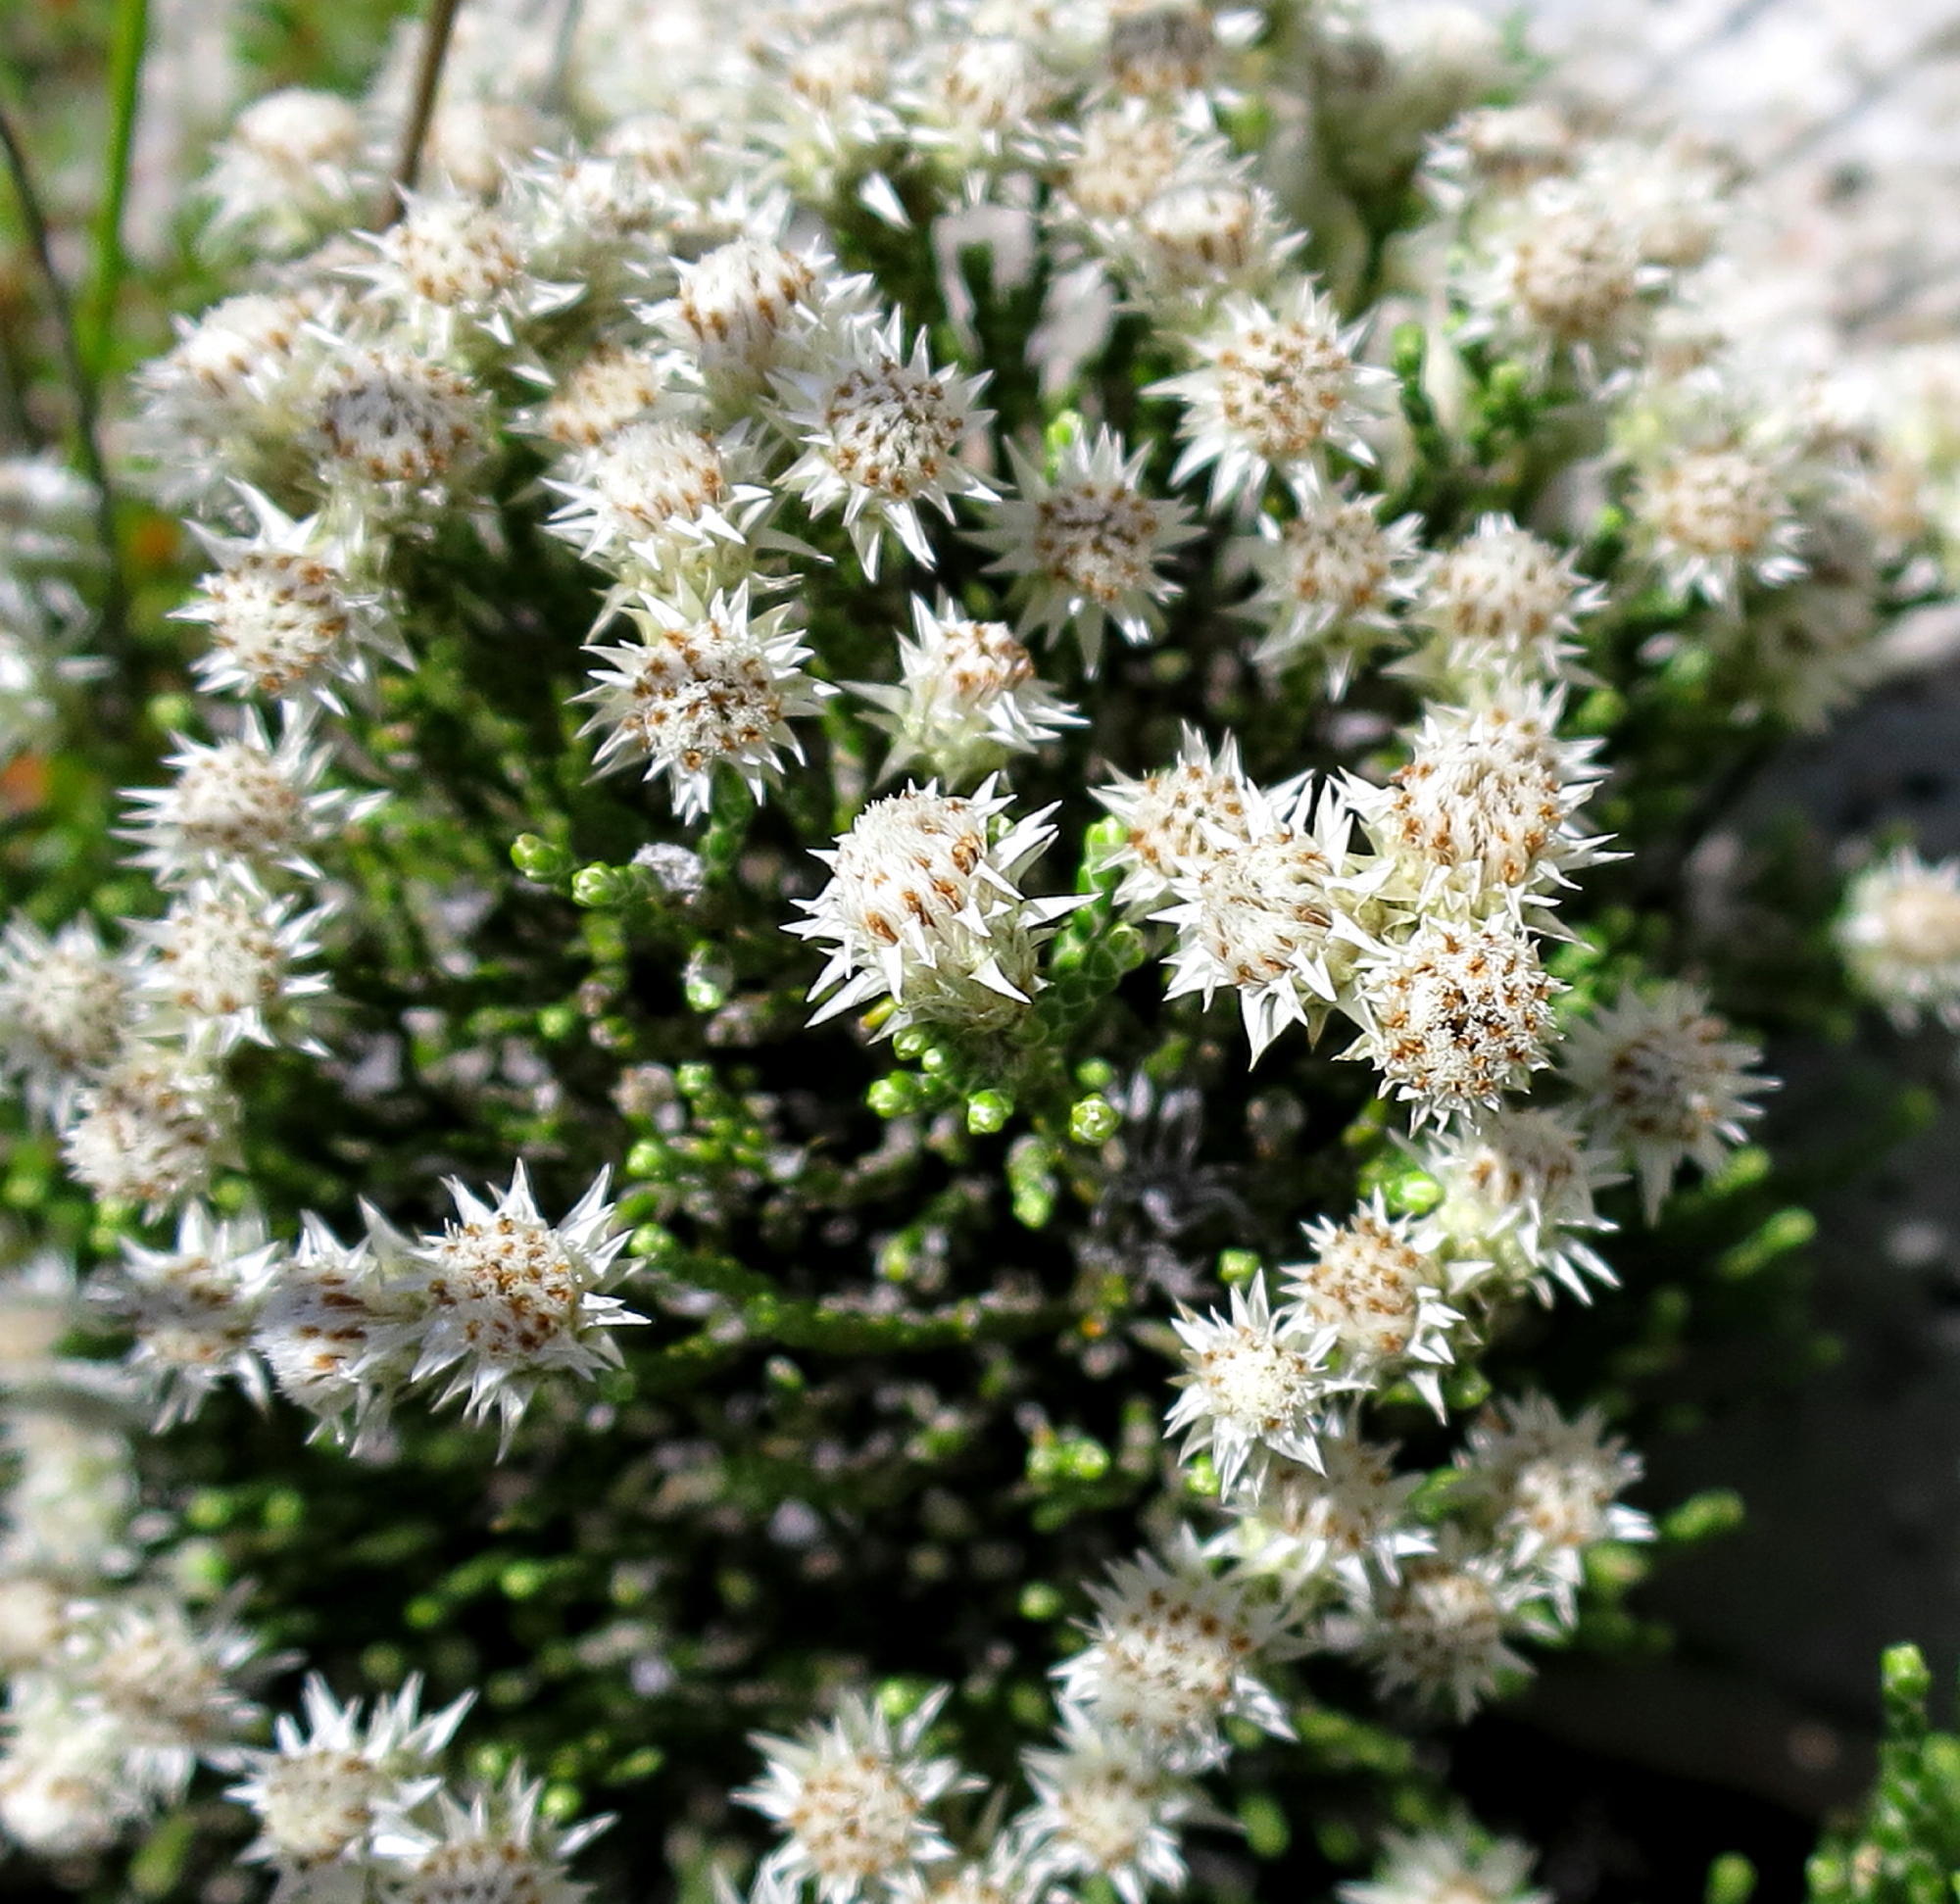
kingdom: Plantae
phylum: Tracheophyta
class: Magnoliopsida
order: Asterales
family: Asteraceae
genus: Dolichothrix
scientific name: Dolichothrix ericoides
